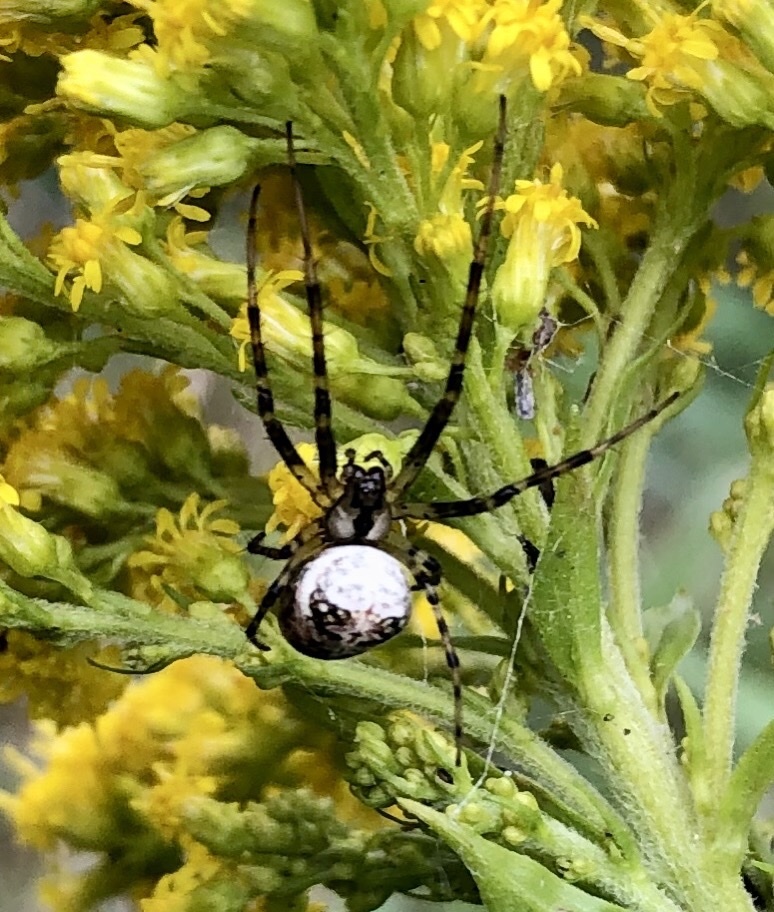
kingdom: Animalia
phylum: Arthropoda
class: Arachnida
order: Araneae
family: Tetragnathidae
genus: Metellina
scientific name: Metellina segmentata
